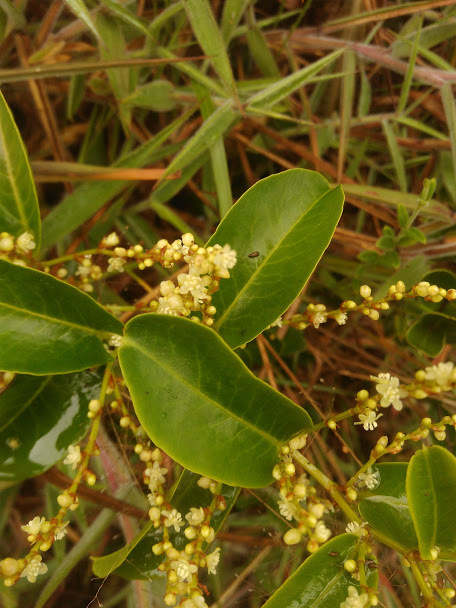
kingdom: Plantae
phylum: Tracheophyta
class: Magnoliopsida
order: Caryophyllales
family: Polygonaceae
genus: Muehlenbeckia
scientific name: Muehlenbeckia tamnifolia
